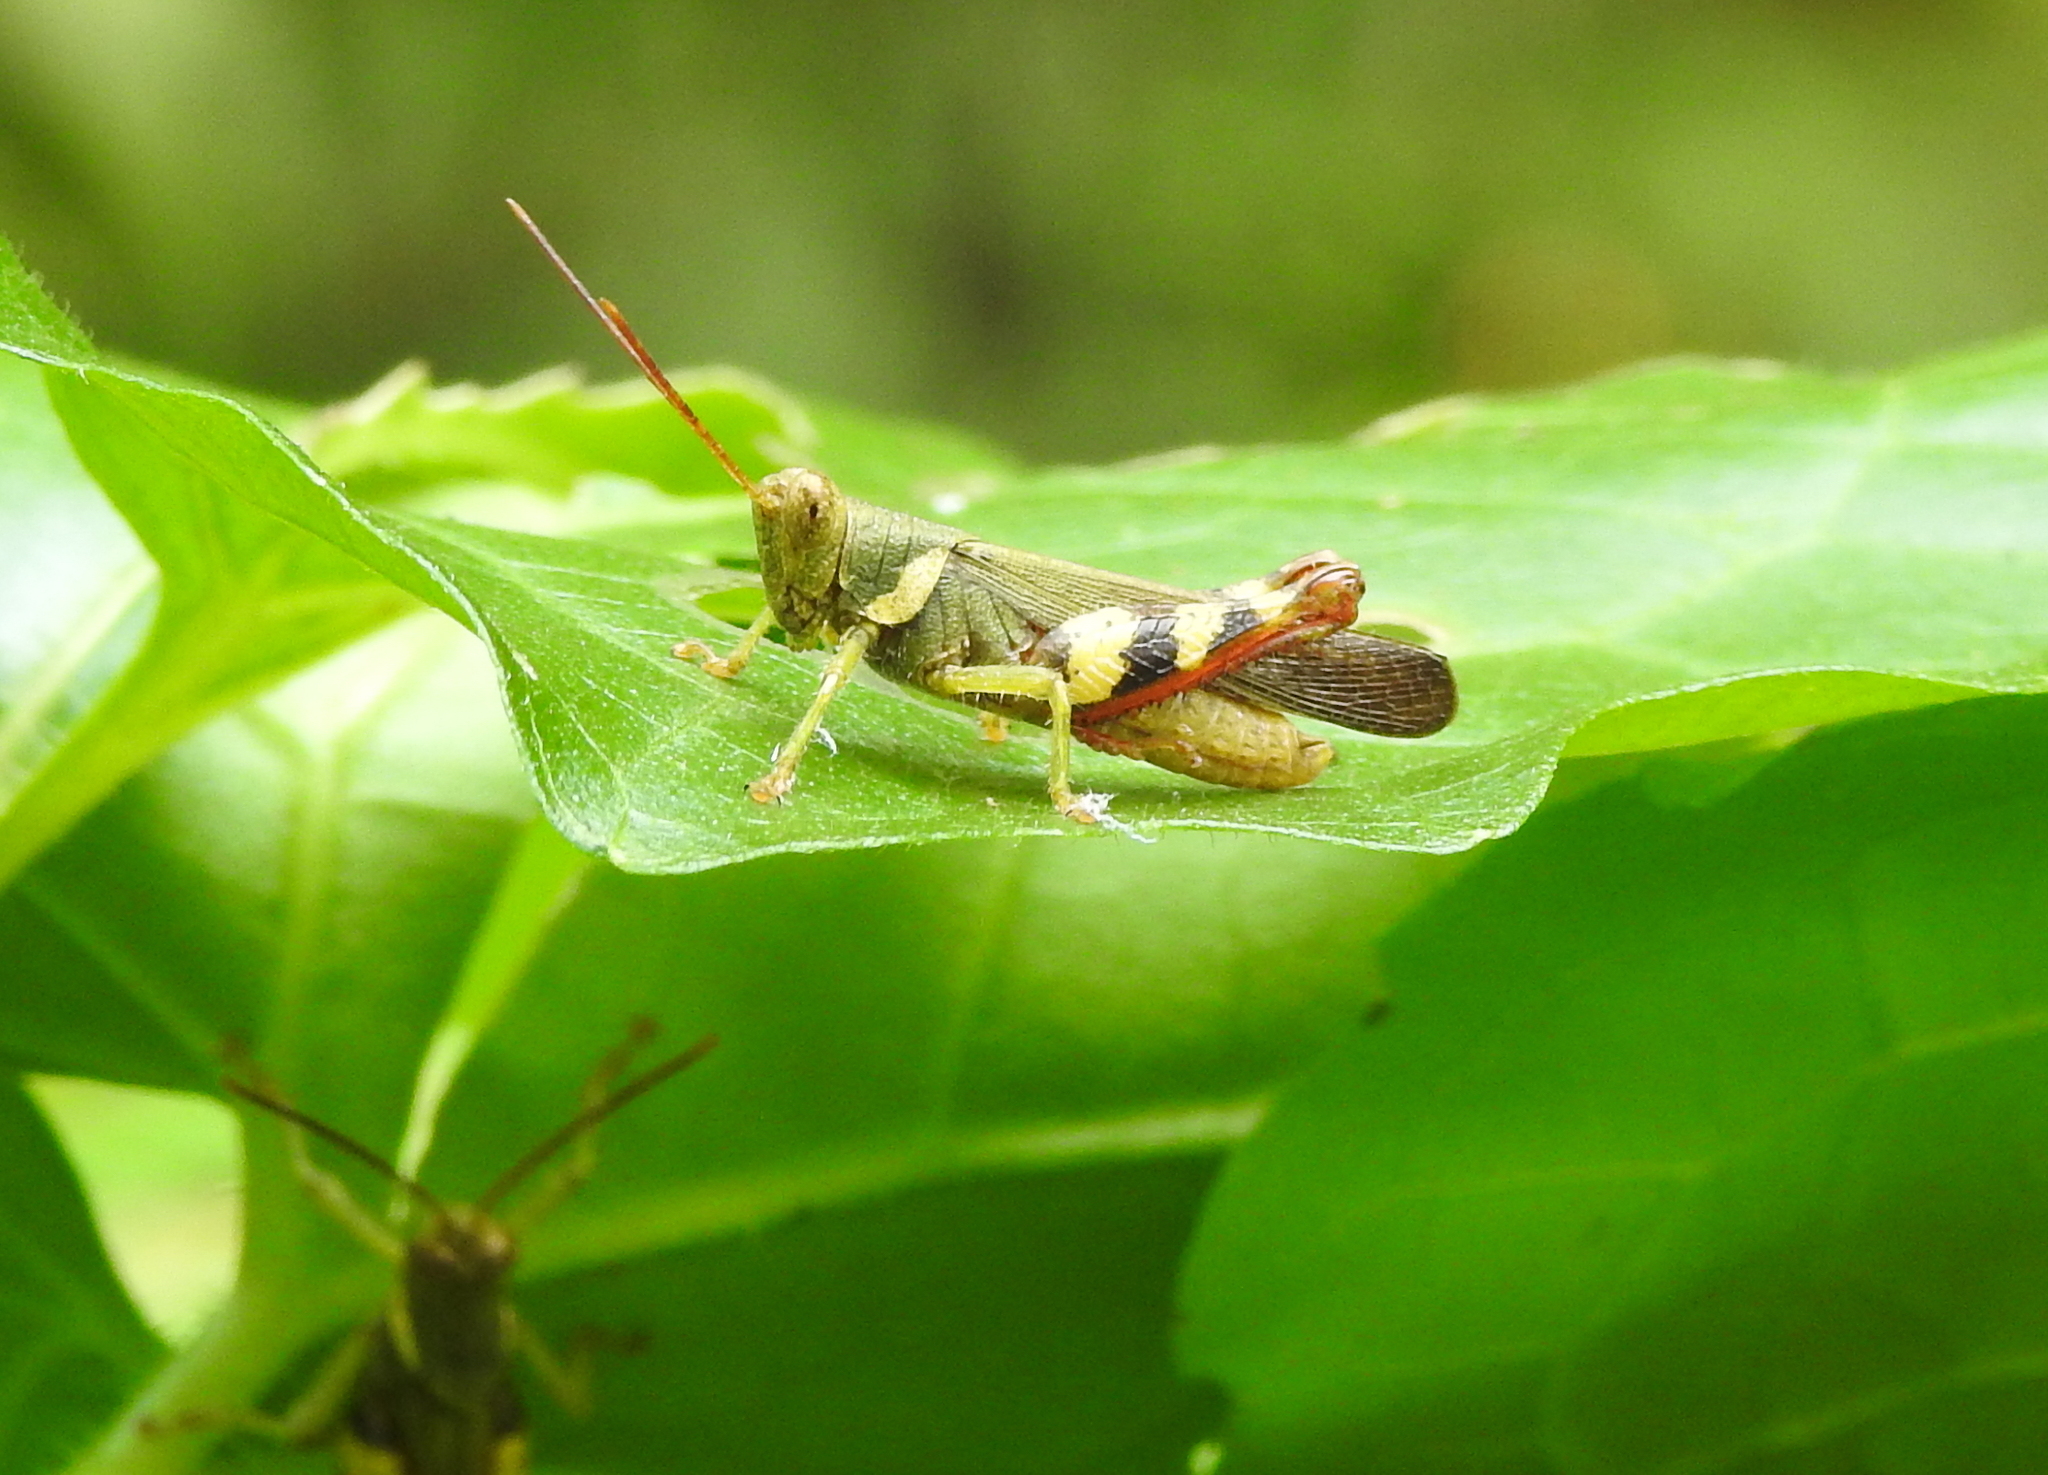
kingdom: Animalia
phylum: Arthropoda
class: Insecta
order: Orthoptera
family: Acrididae
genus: Apalacris
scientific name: Apalacris varicornis
